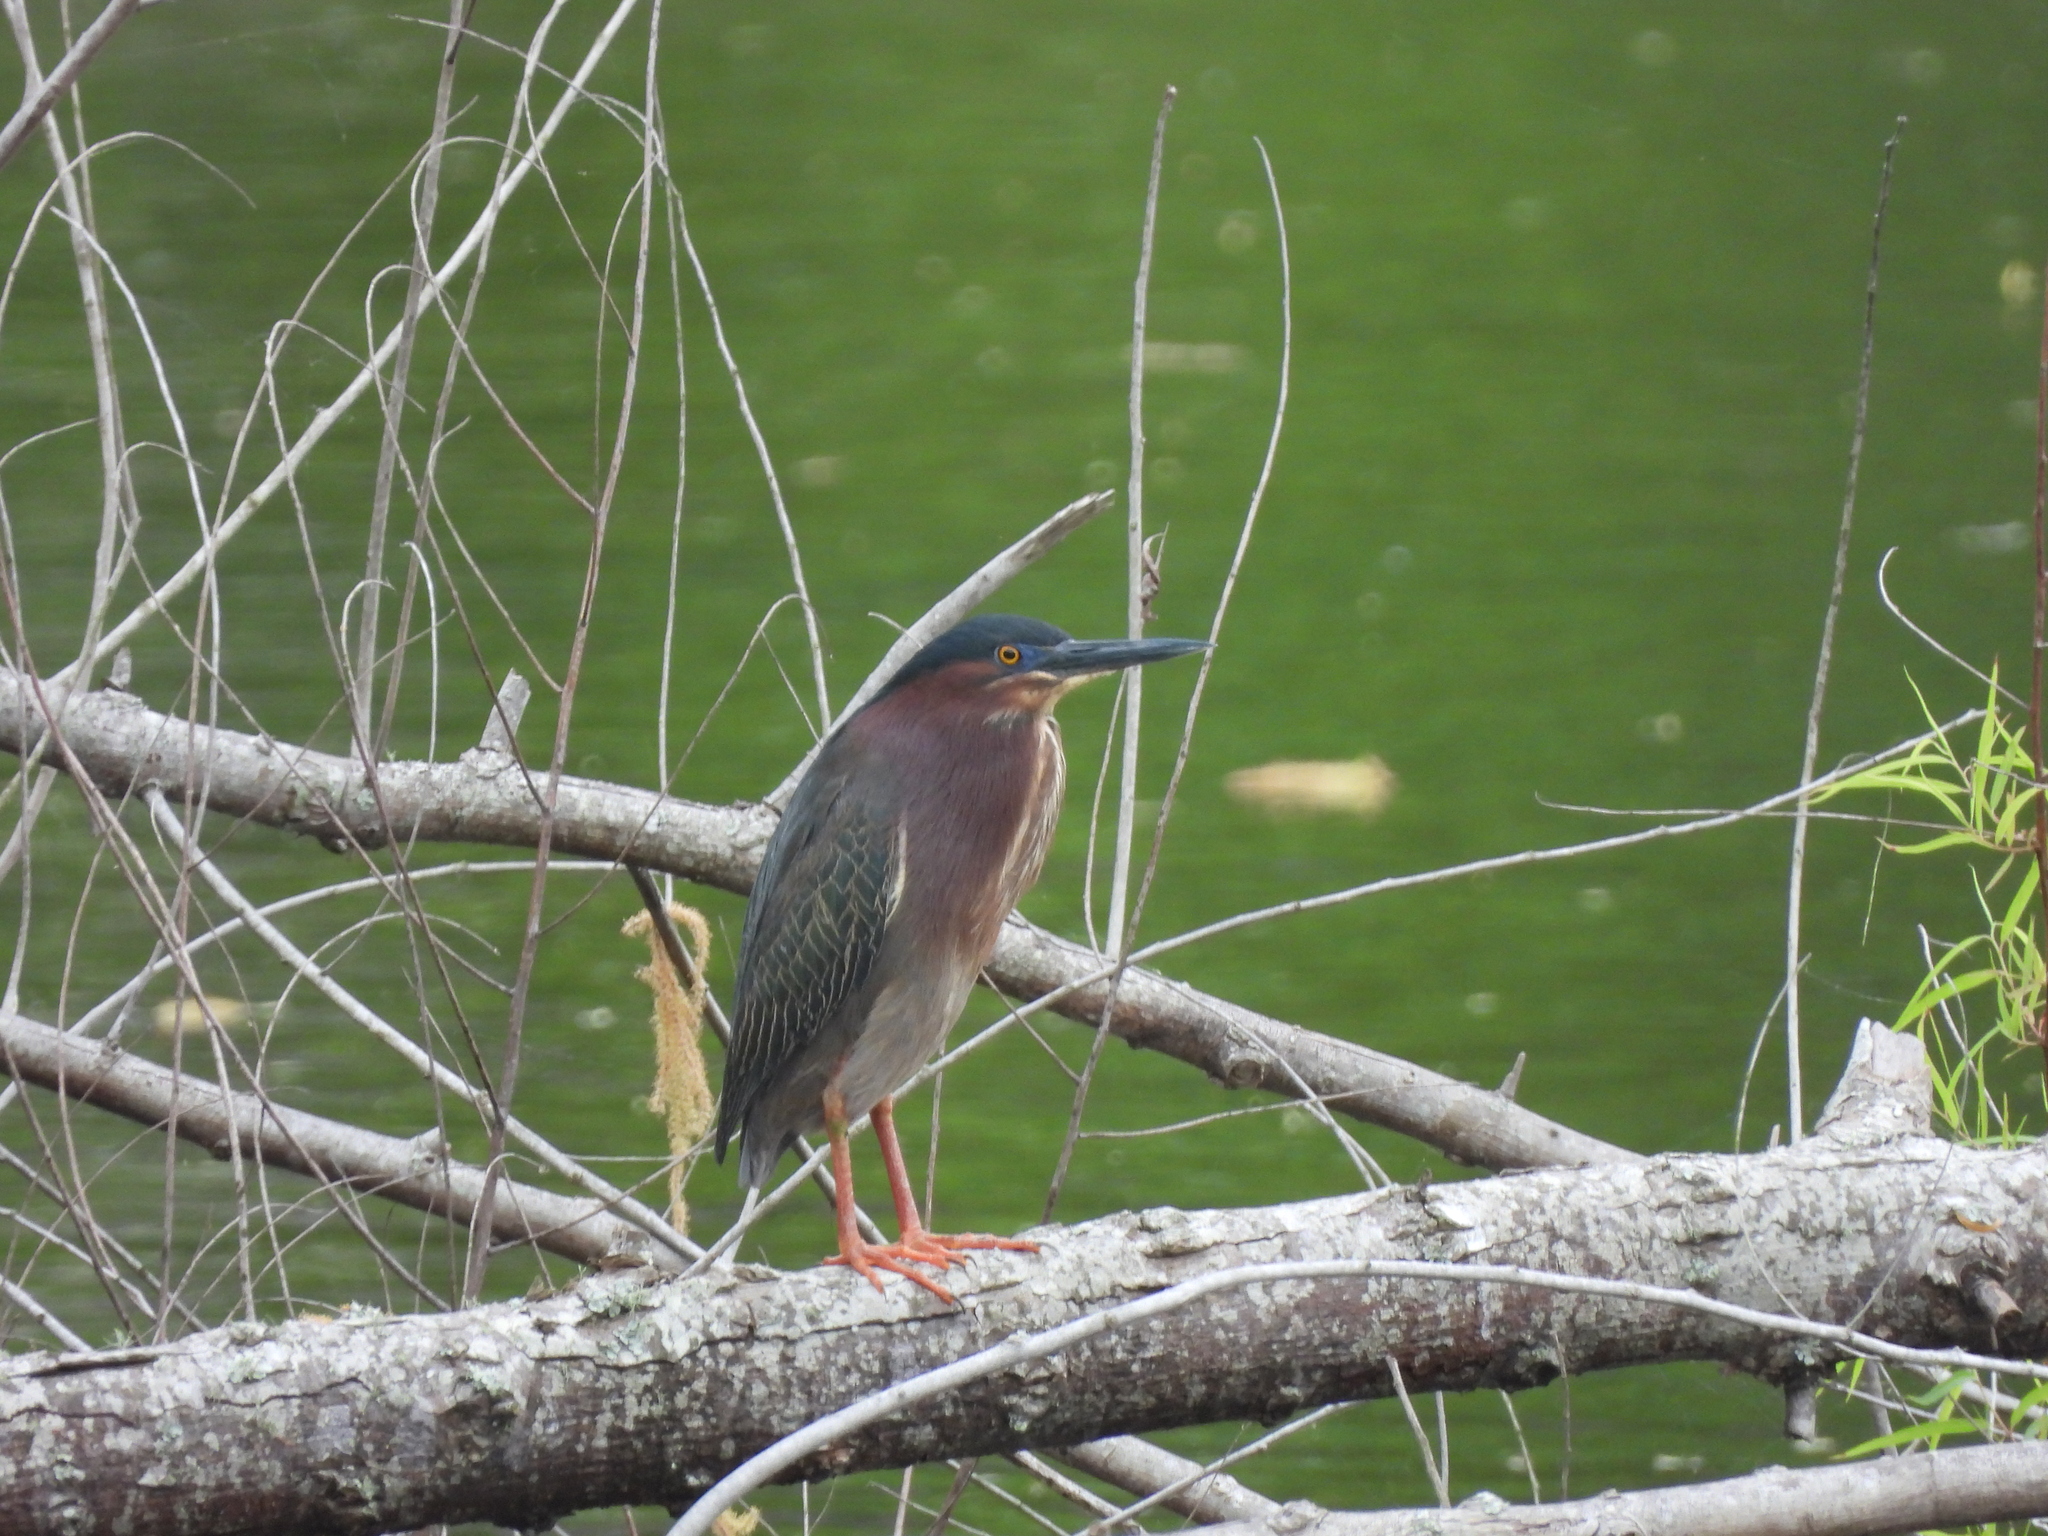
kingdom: Animalia
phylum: Chordata
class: Aves
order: Pelecaniformes
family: Ardeidae
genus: Butorides
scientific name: Butorides virescens
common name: Green heron
